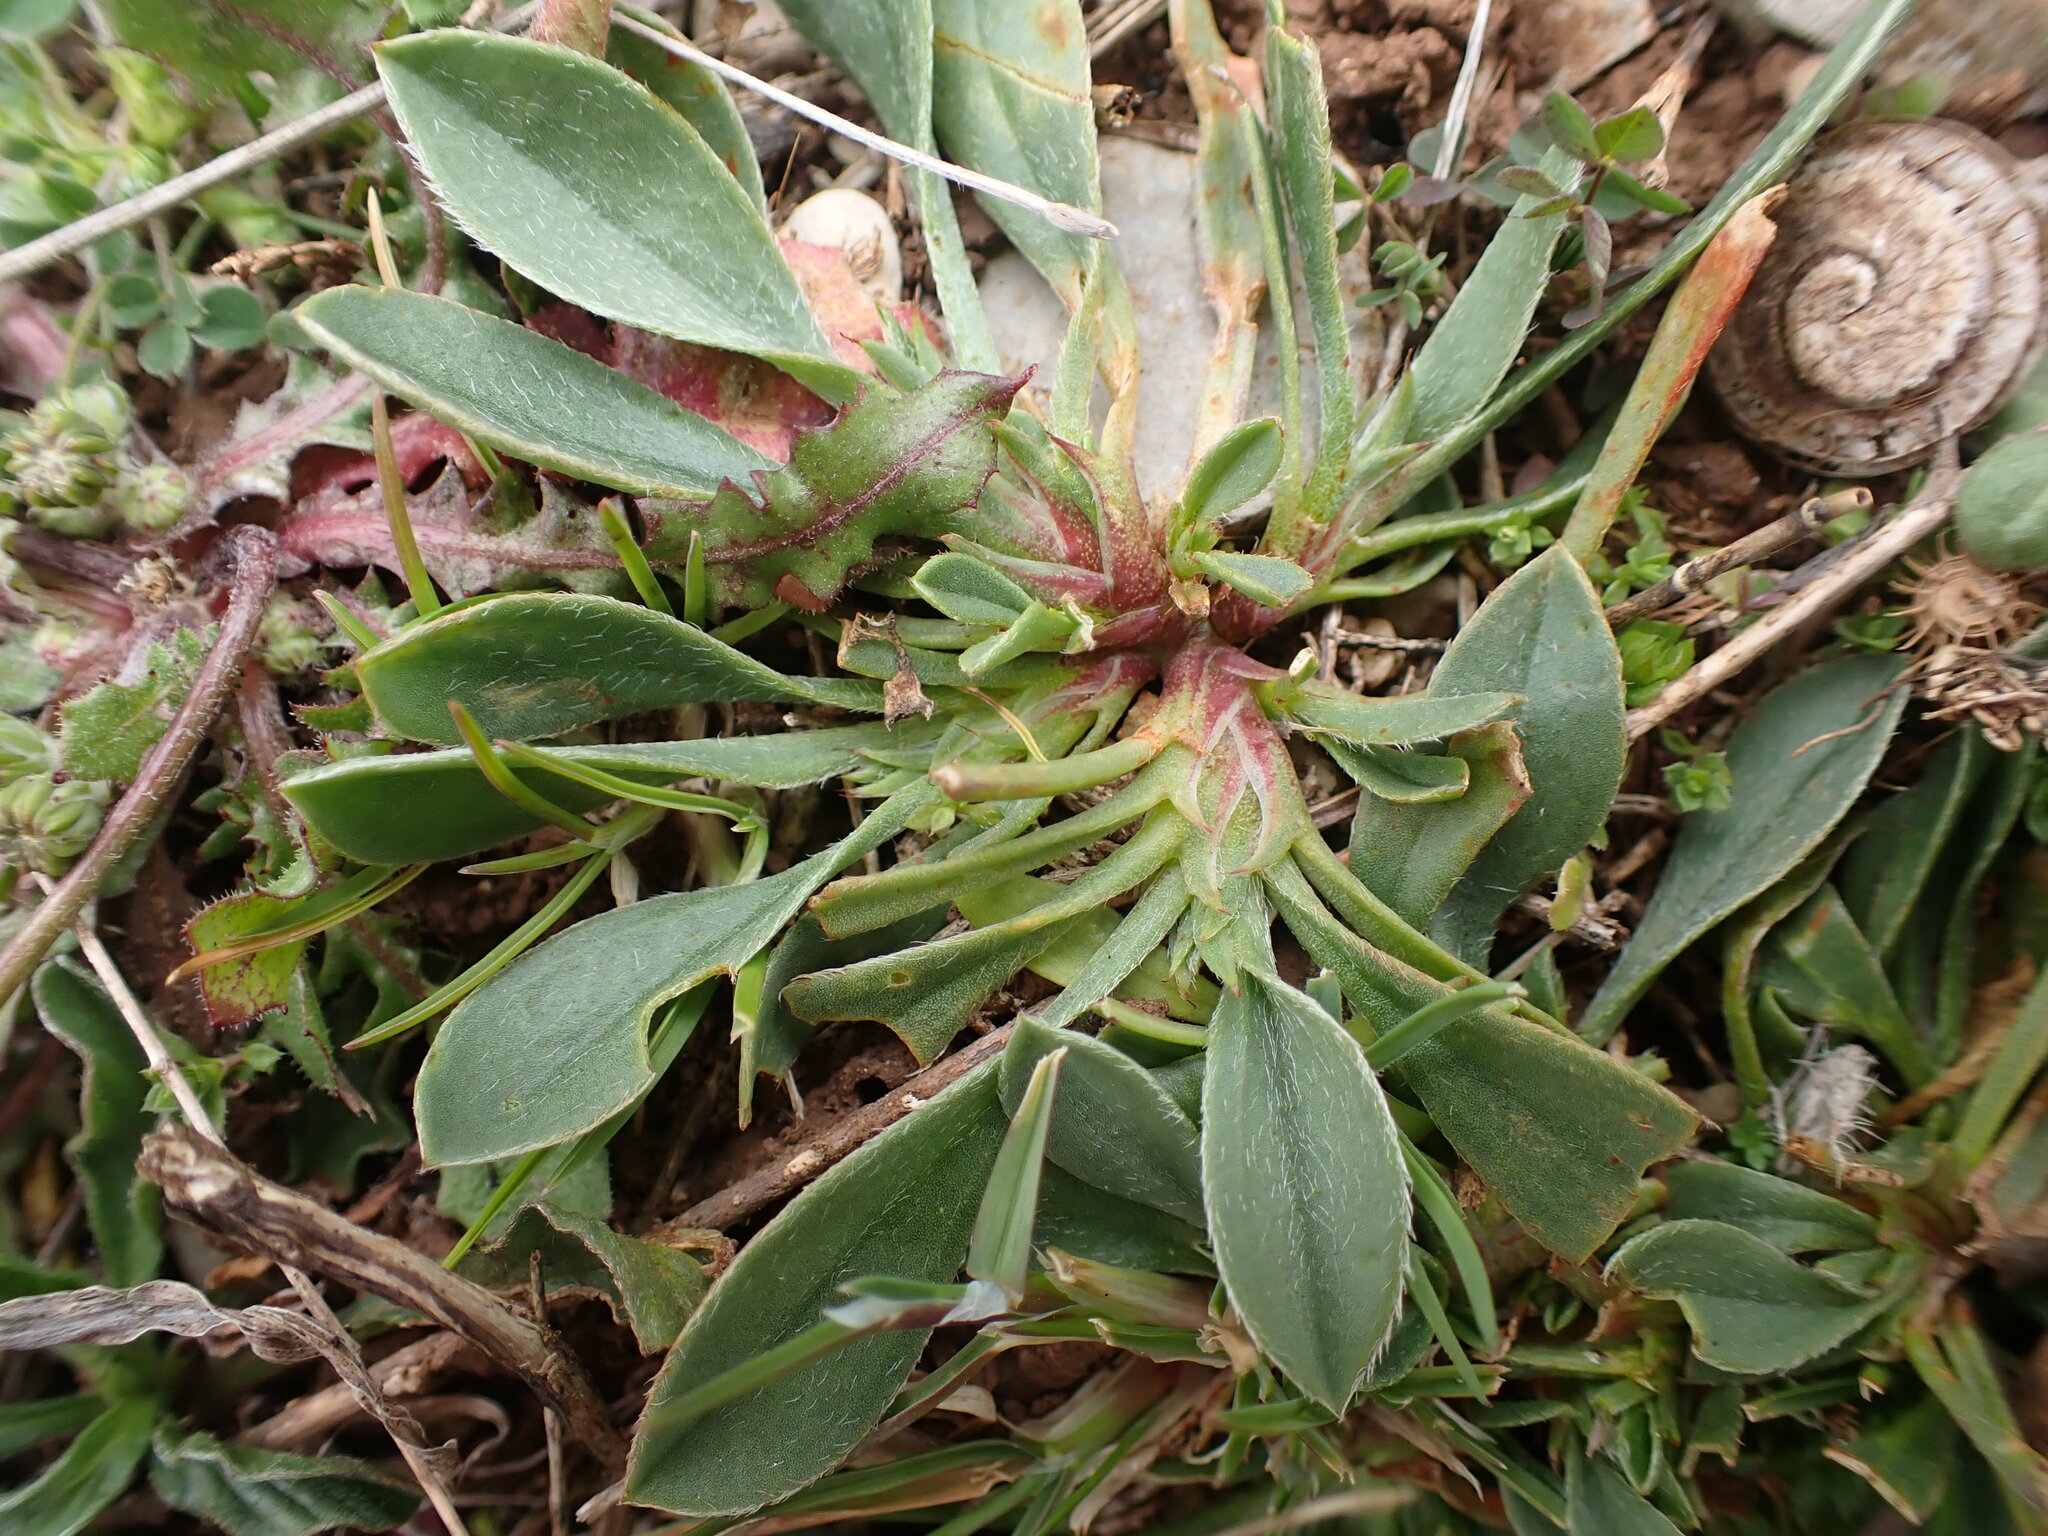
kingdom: Plantae
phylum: Tracheophyta
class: Magnoliopsida
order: Fabales
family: Fabaceae
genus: Scorpiurus
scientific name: Scorpiurus muricatus
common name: Caterpillar-plant
